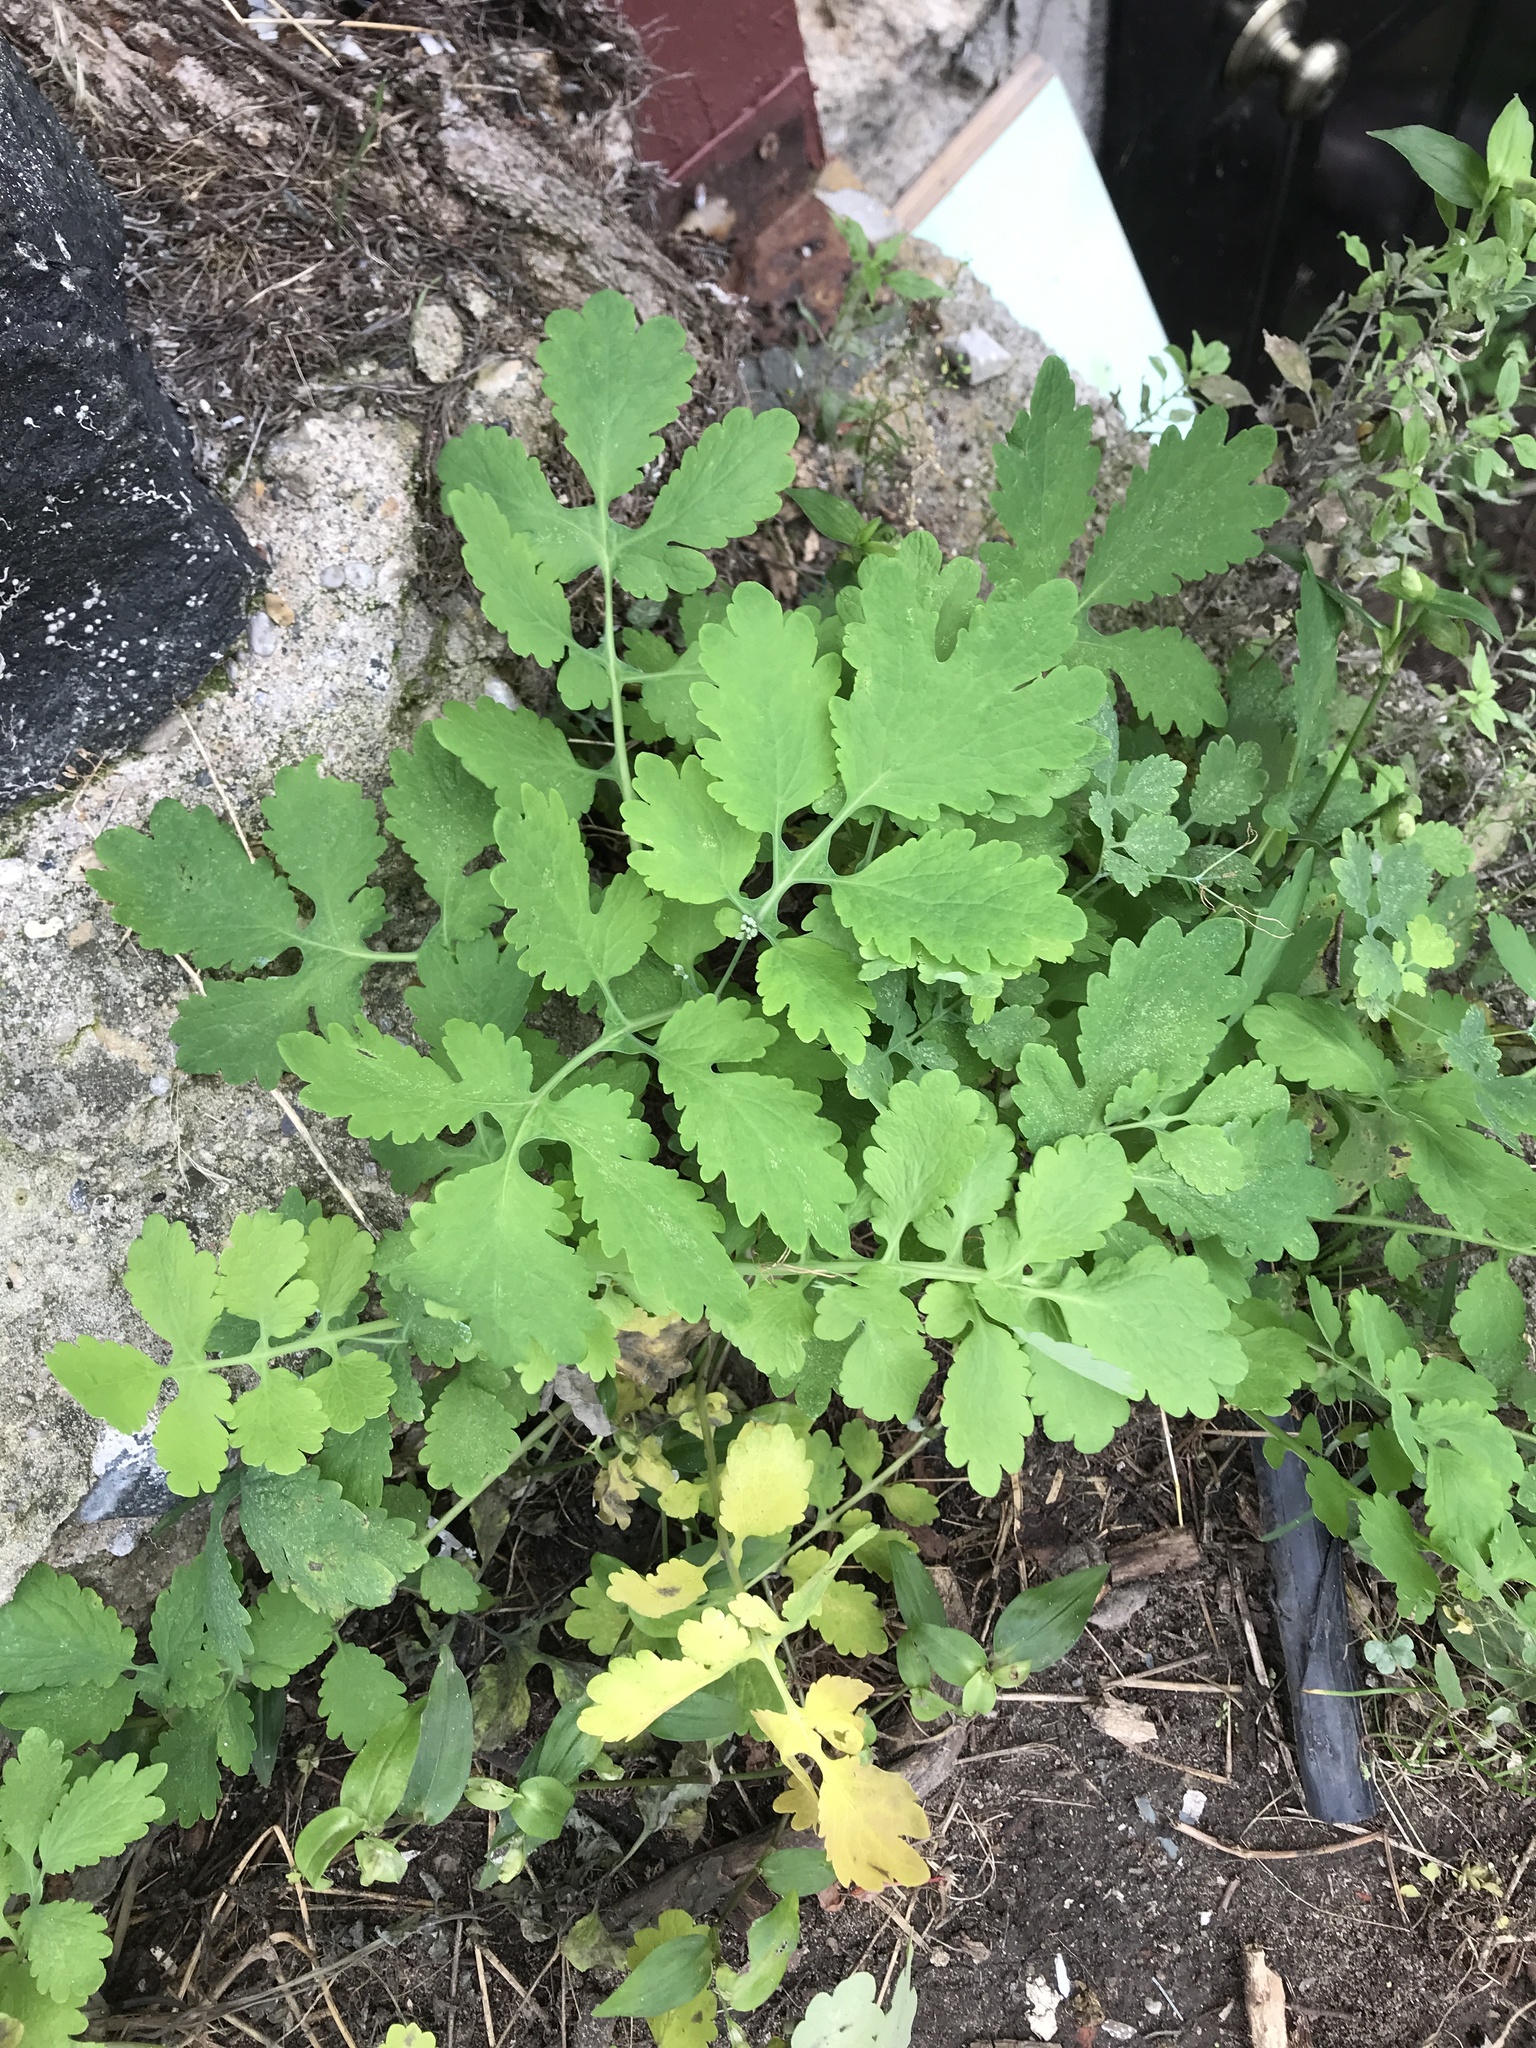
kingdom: Plantae
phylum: Tracheophyta
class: Magnoliopsida
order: Ranunculales
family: Papaveraceae
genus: Chelidonium
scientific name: Chelidonium majus
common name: Greater celandine
